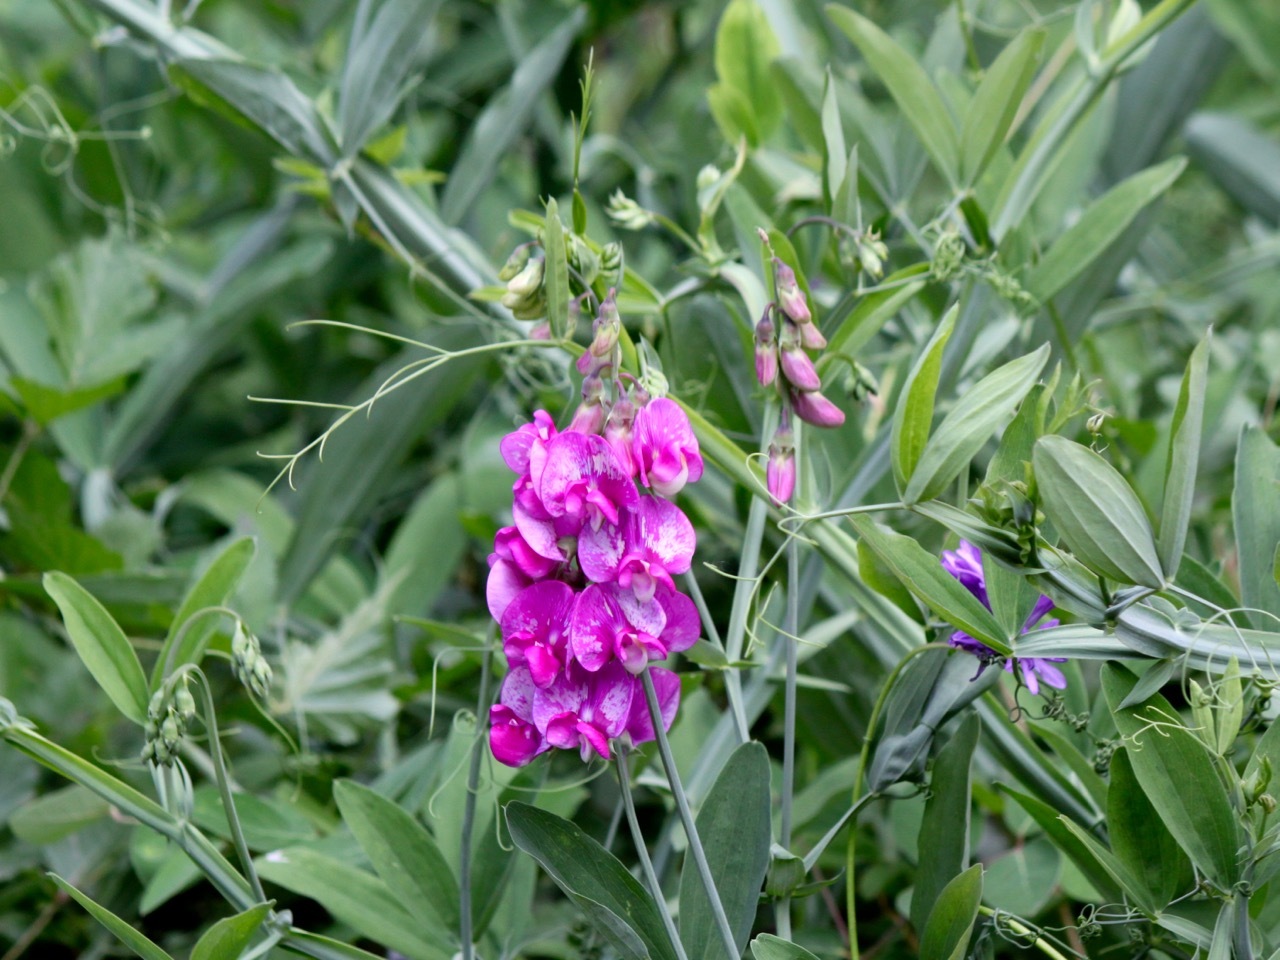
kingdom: Plantae
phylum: Tracheophyta
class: Magnoliopsida
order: Fabales
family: Fabaceae
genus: Lathyrus
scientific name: Lathyrus latifolius
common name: Perennial pea
